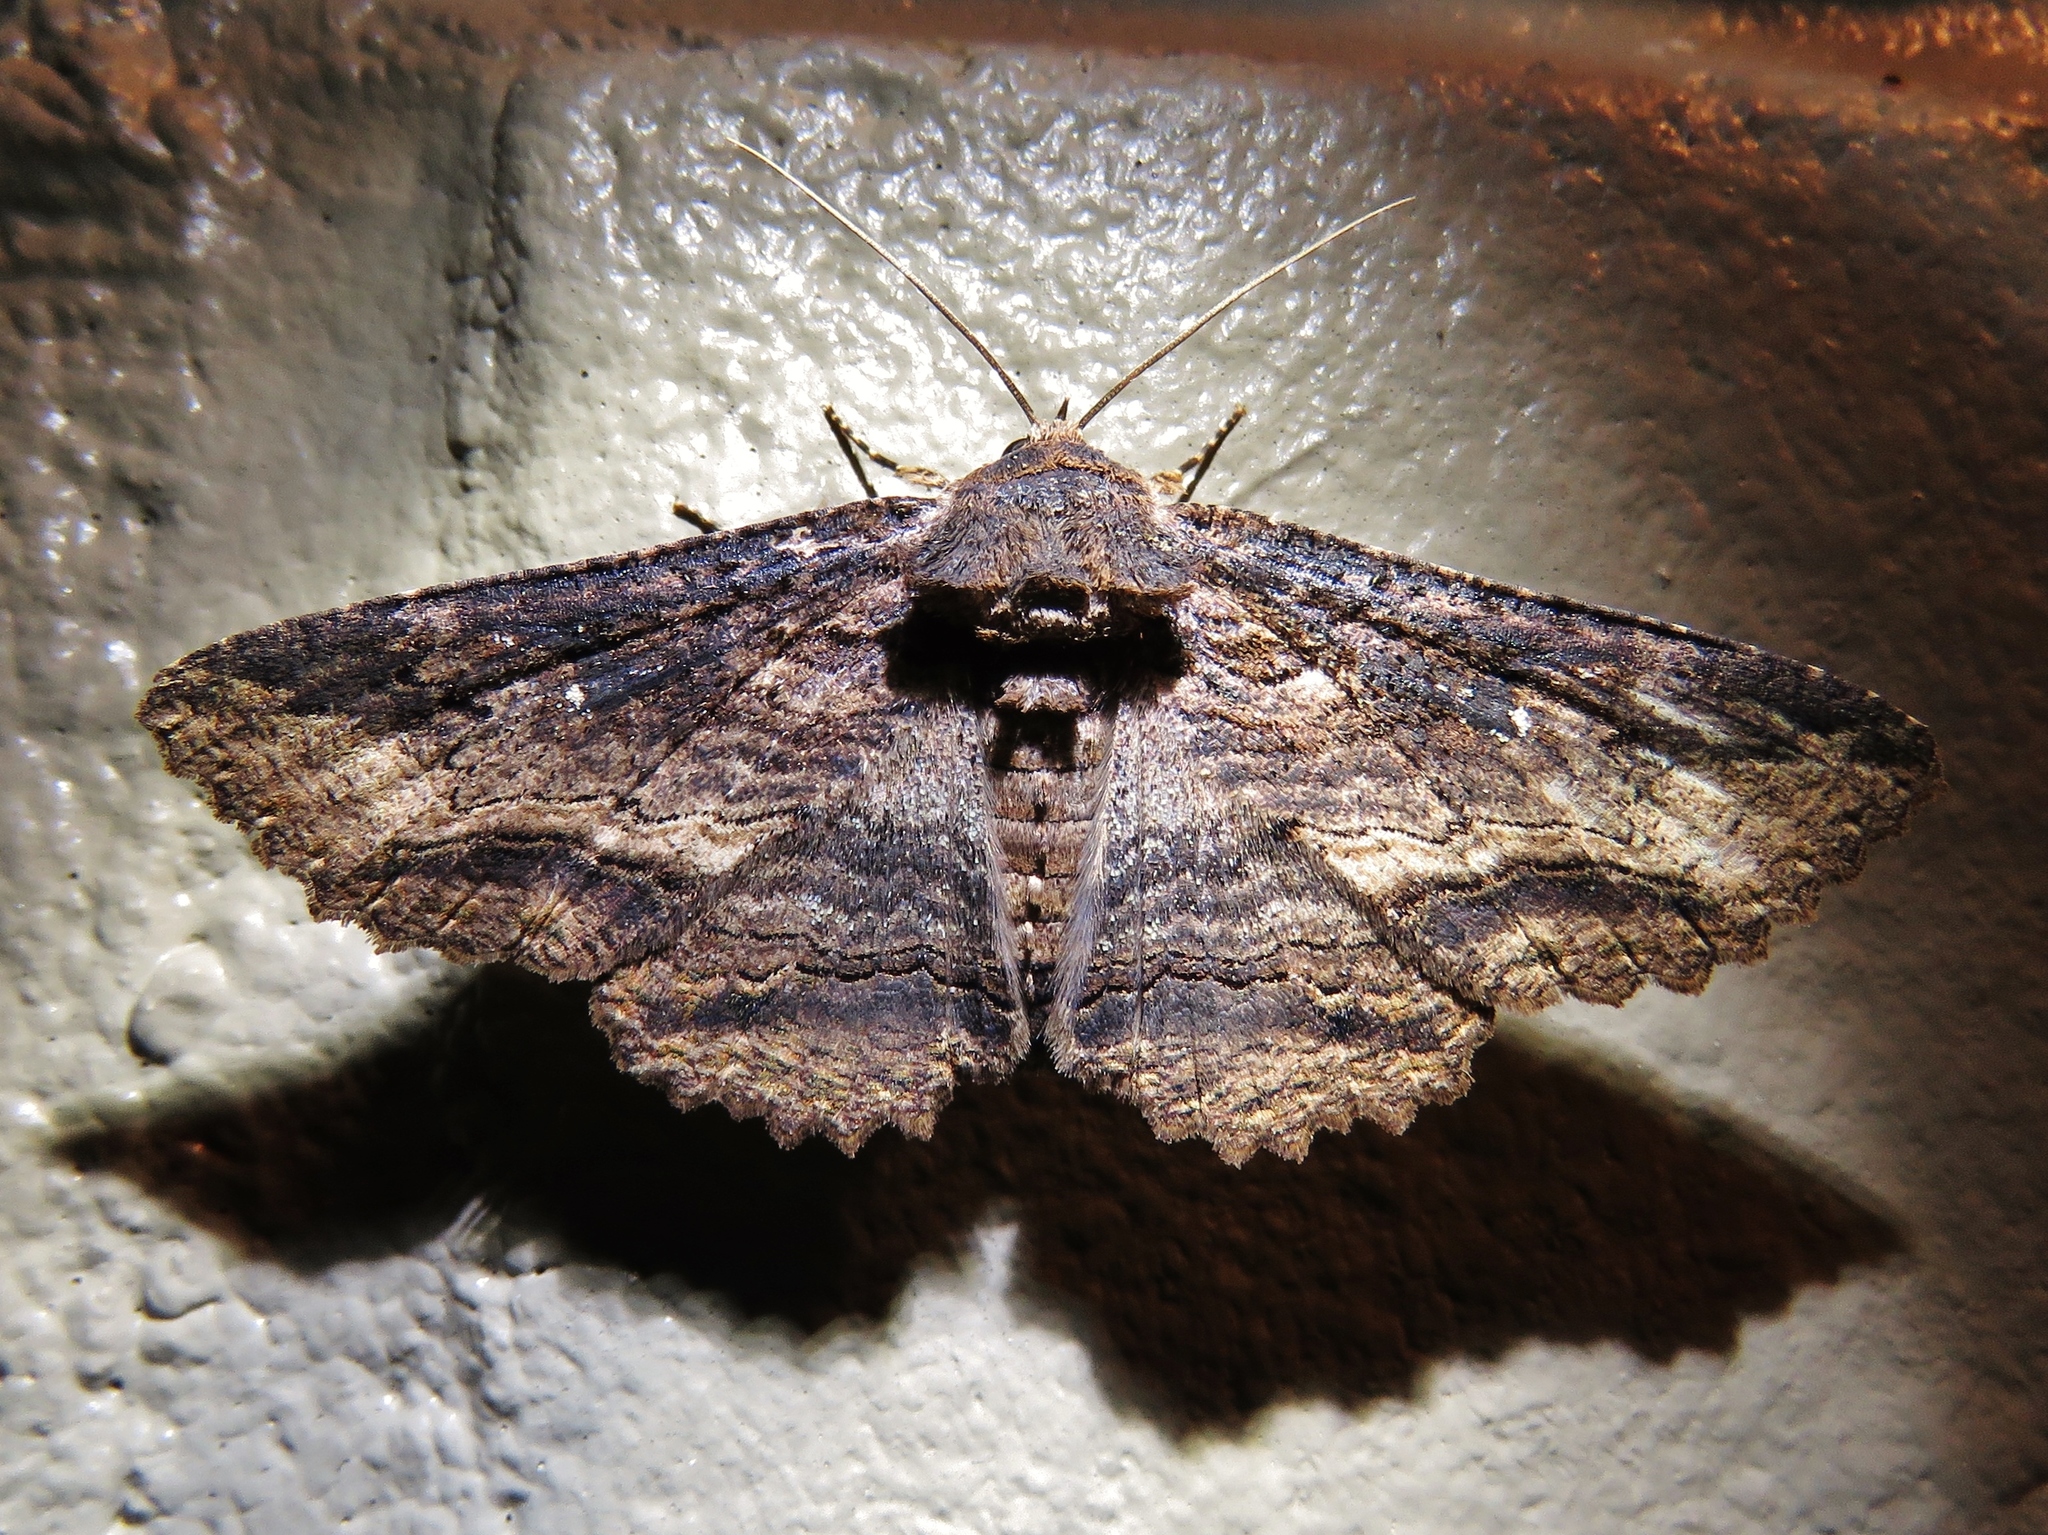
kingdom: Animalia
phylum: Arthropoda
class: Insecta
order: Lepidoptera
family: Erebidae
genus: Zale
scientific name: Zale lunata
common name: Lunate zale moth
